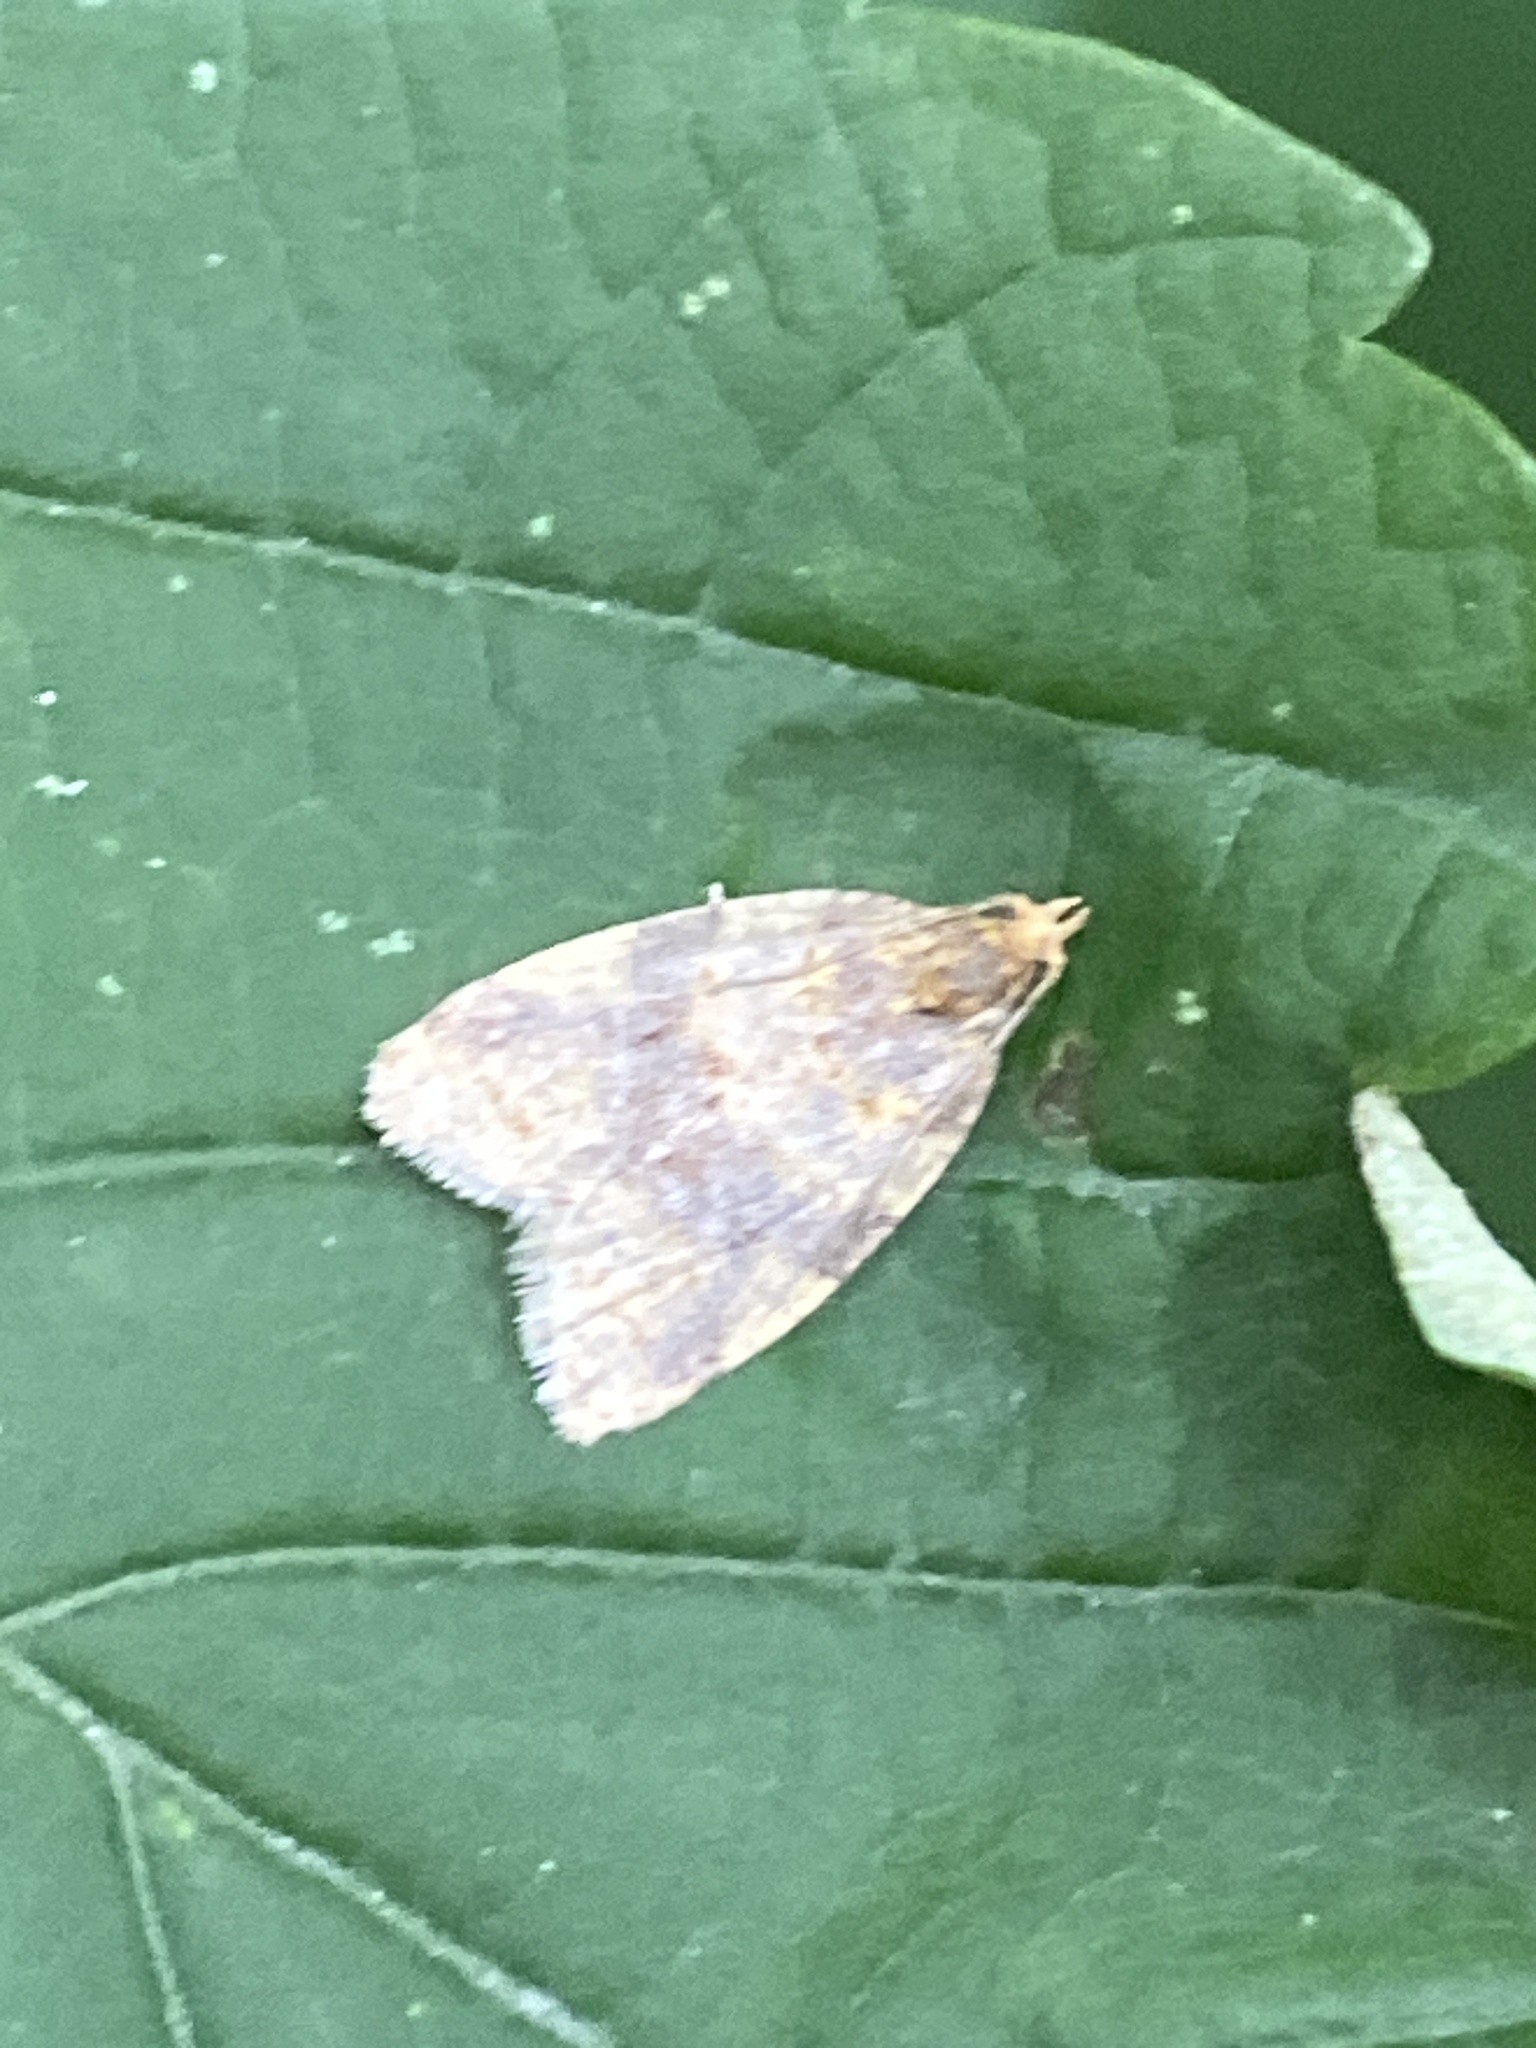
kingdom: Animalia
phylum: Arthropoda
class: Insecta
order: Lepidoptera
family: Tortricidae
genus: Epagoge
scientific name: Epagoge grotiana
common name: Brown-barred twist
